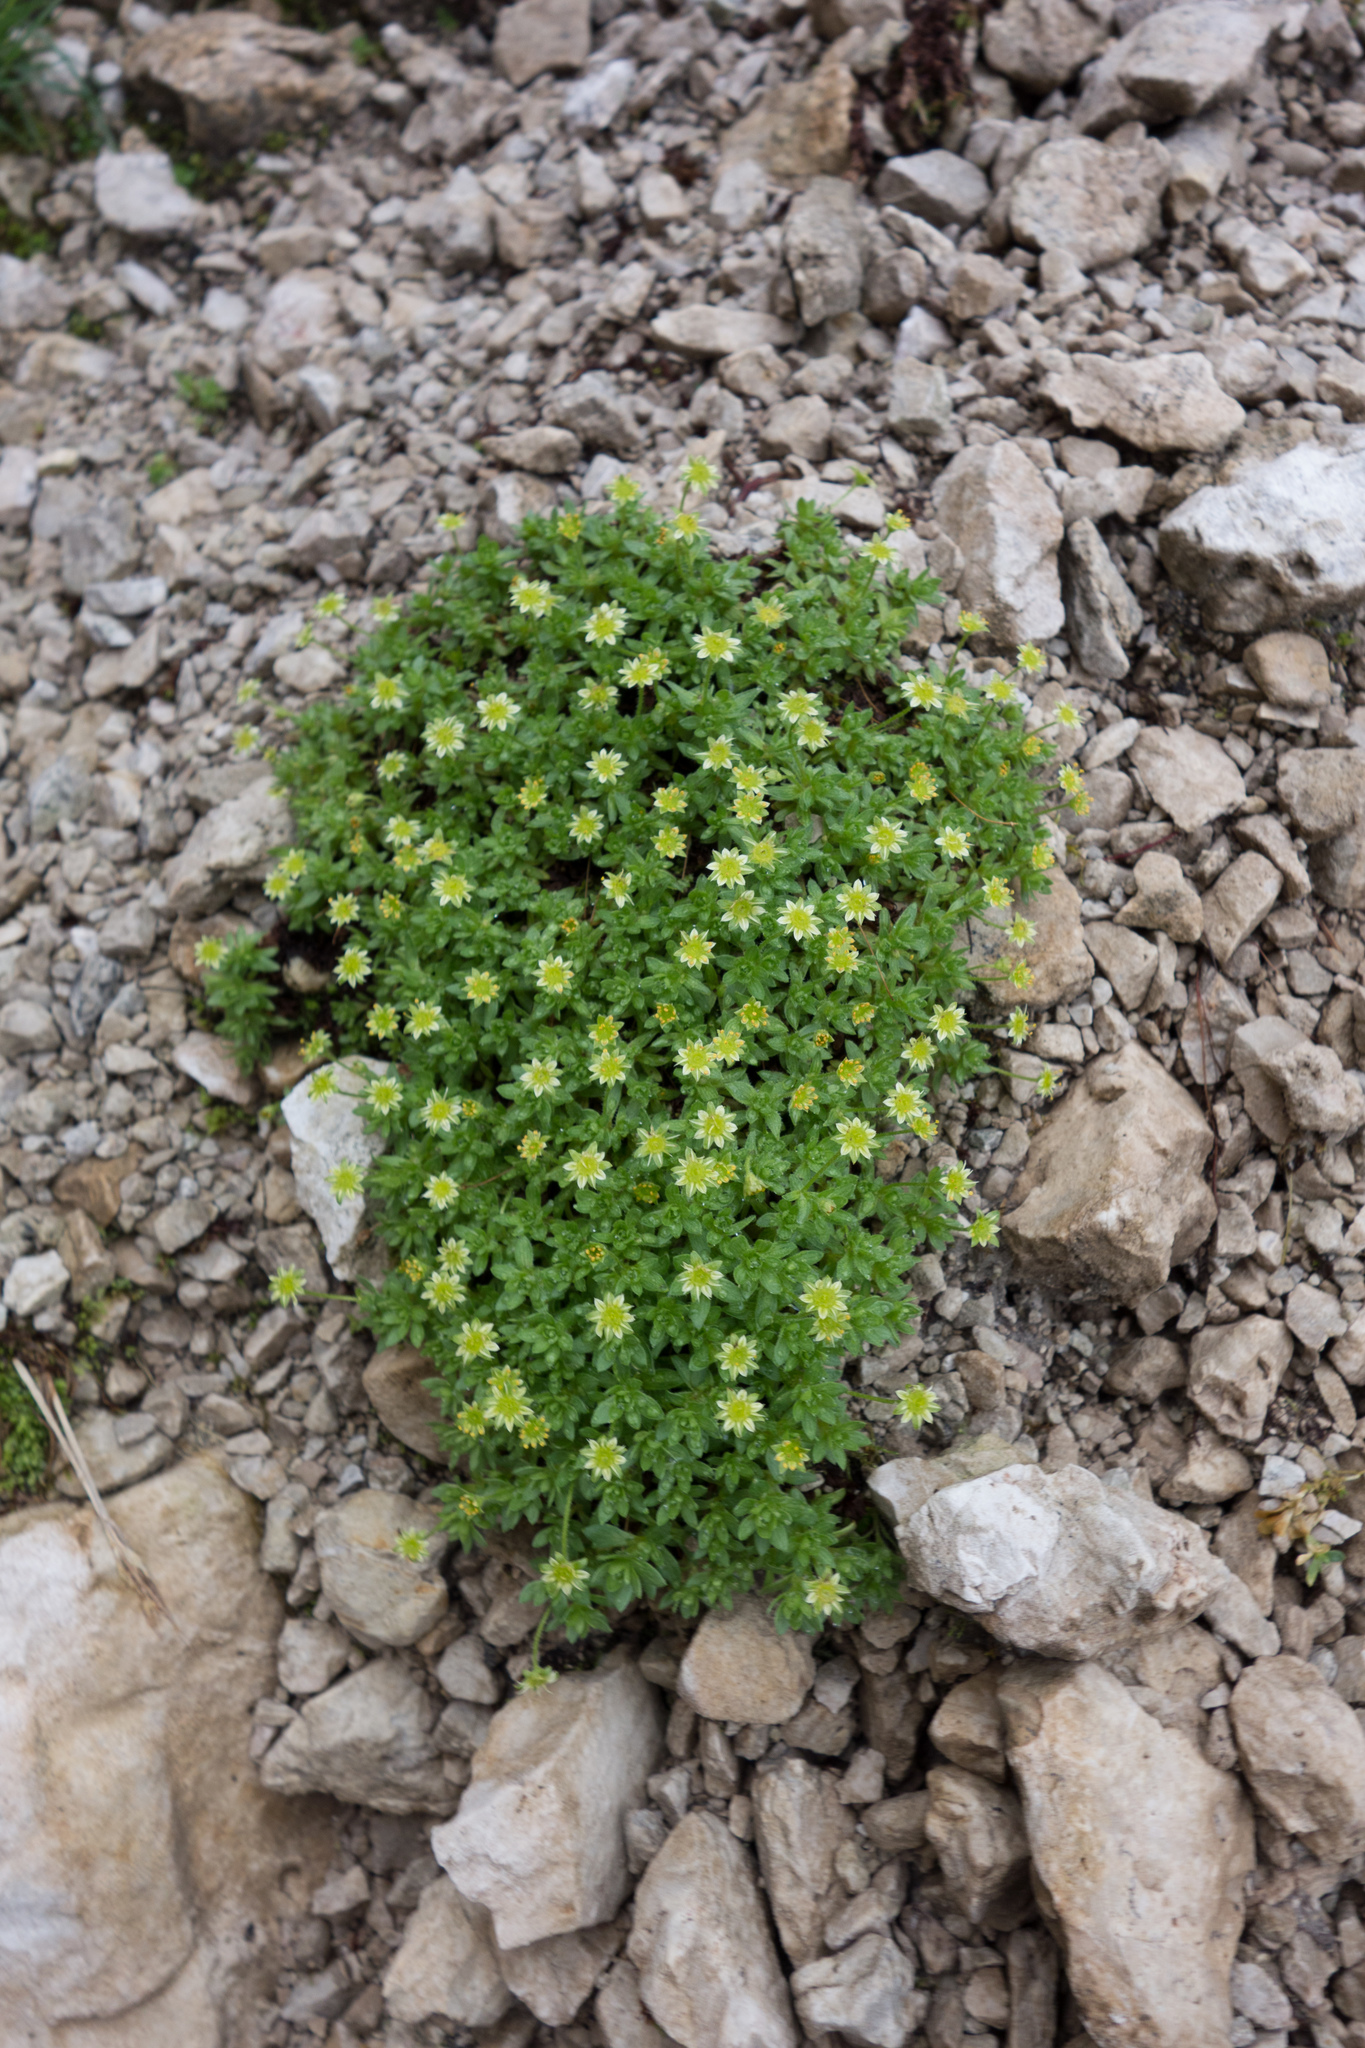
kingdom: Plantae
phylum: Tracheophyta
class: Magnoliopsida
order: Saxifragales
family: Saxifragaceae
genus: Saxifraga
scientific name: Saxifraga sedoides
